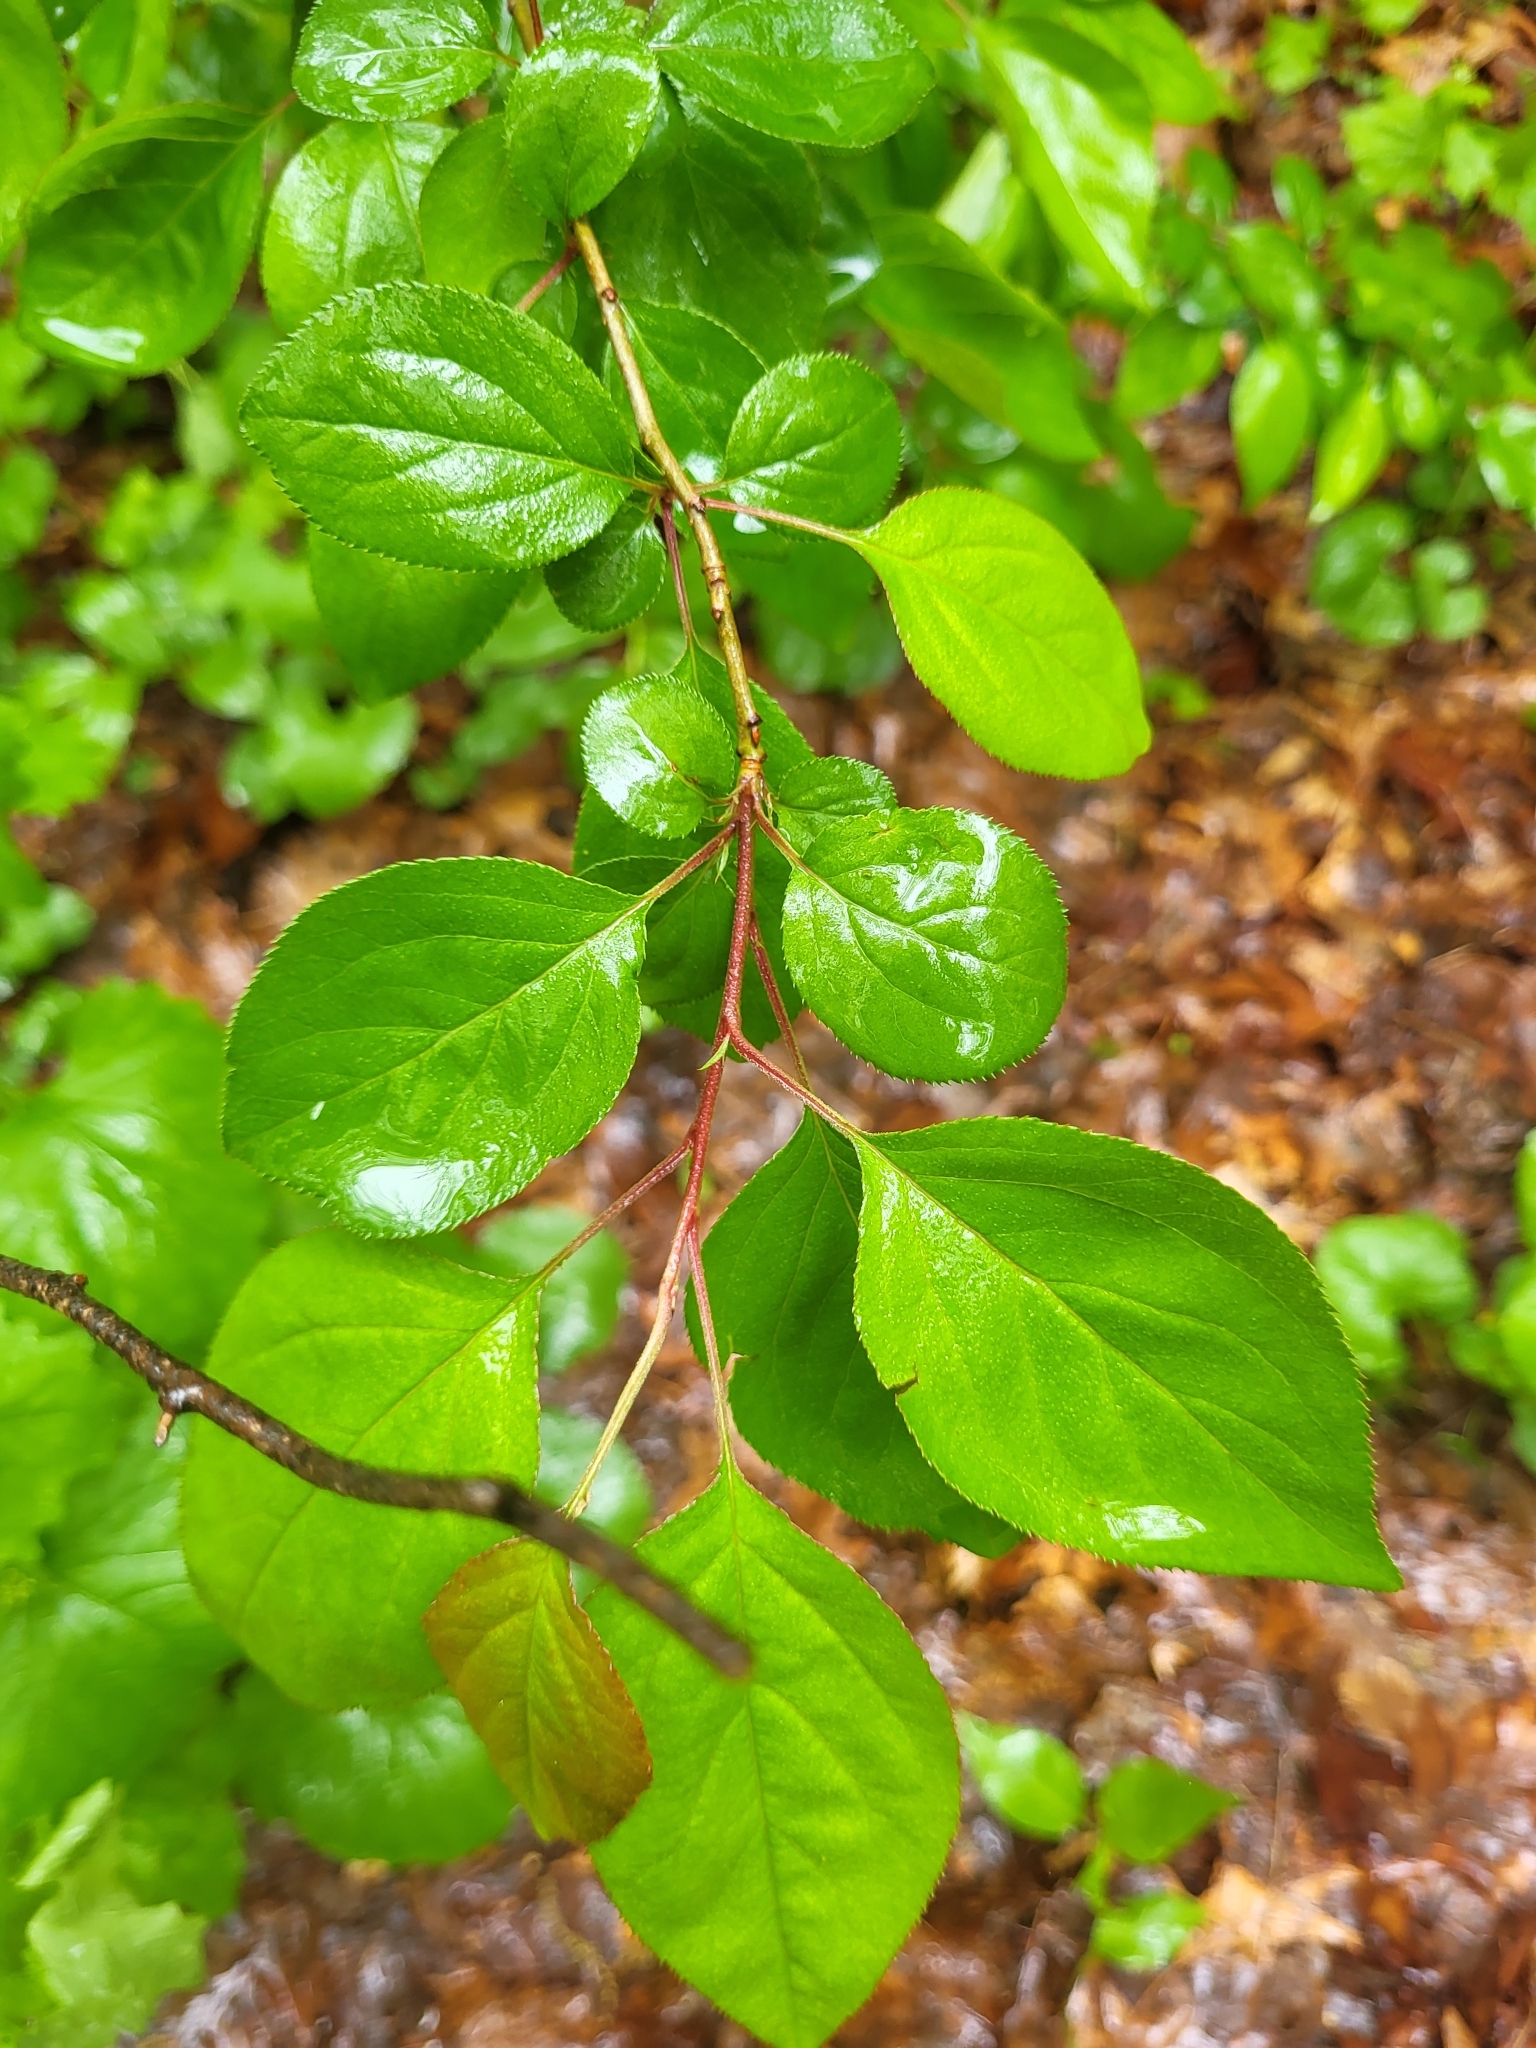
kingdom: Plantae
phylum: Tracheophyta
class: Magnoliopsida
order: Rosales
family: Rosaceae
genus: Malus
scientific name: Malus hupehensis
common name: Chinese crab apple
